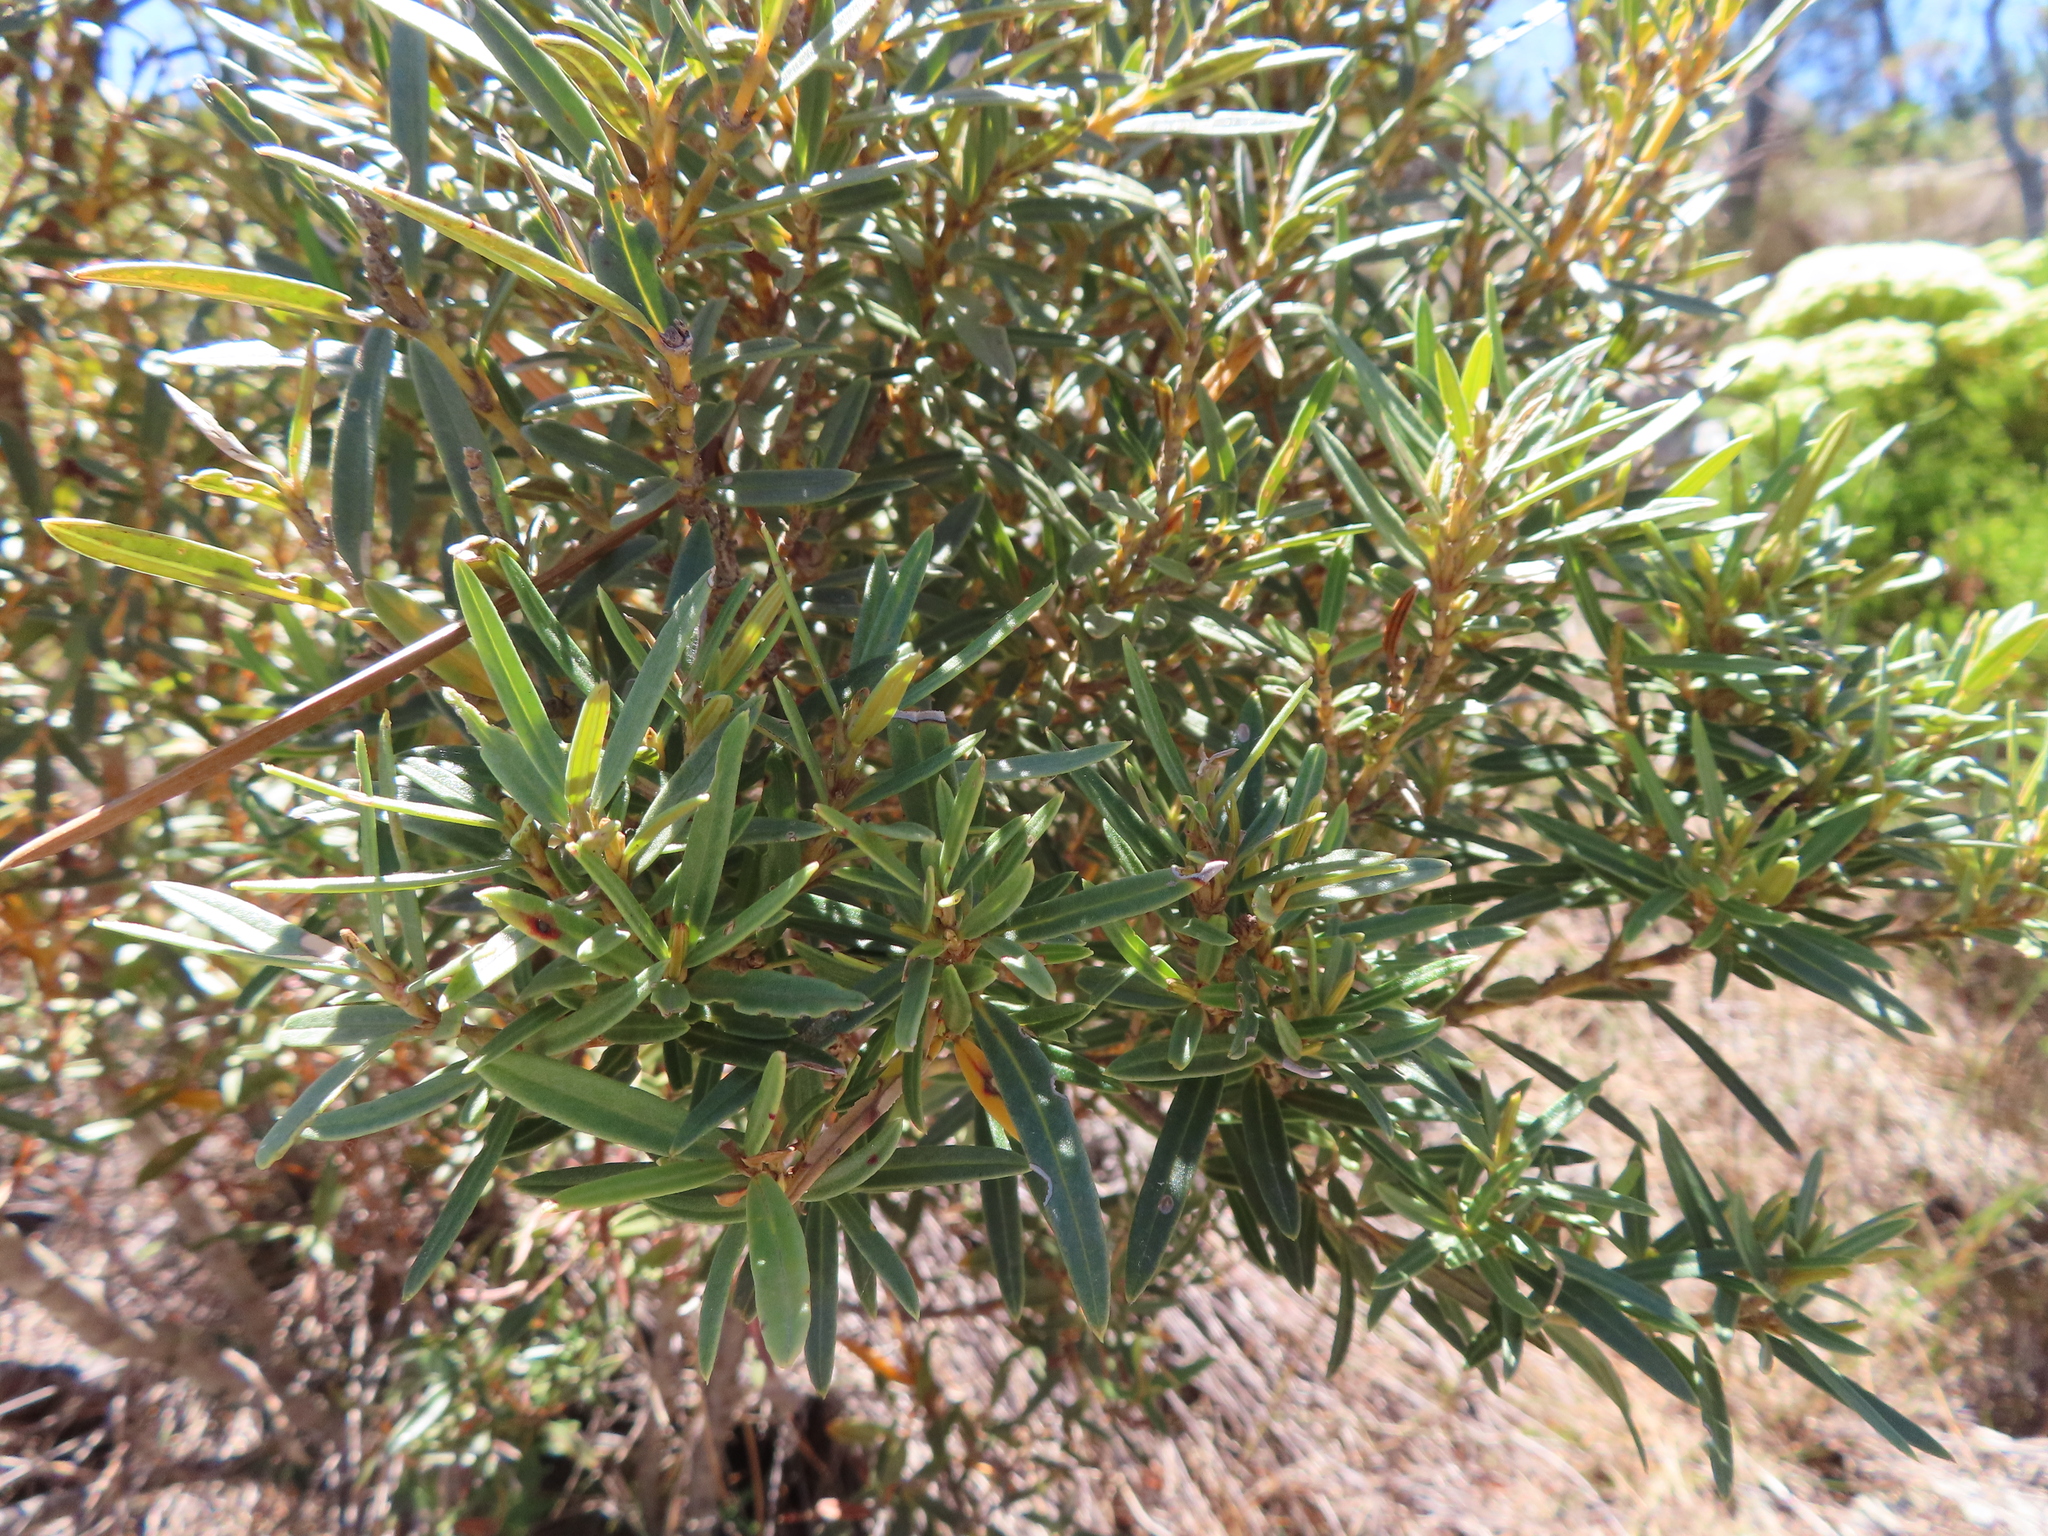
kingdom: Plantae
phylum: Tracheophyta
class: Magnoliopsida
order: Cornales
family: Grubbiaceae
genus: Grubbia
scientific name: Grubbia tomentosa
